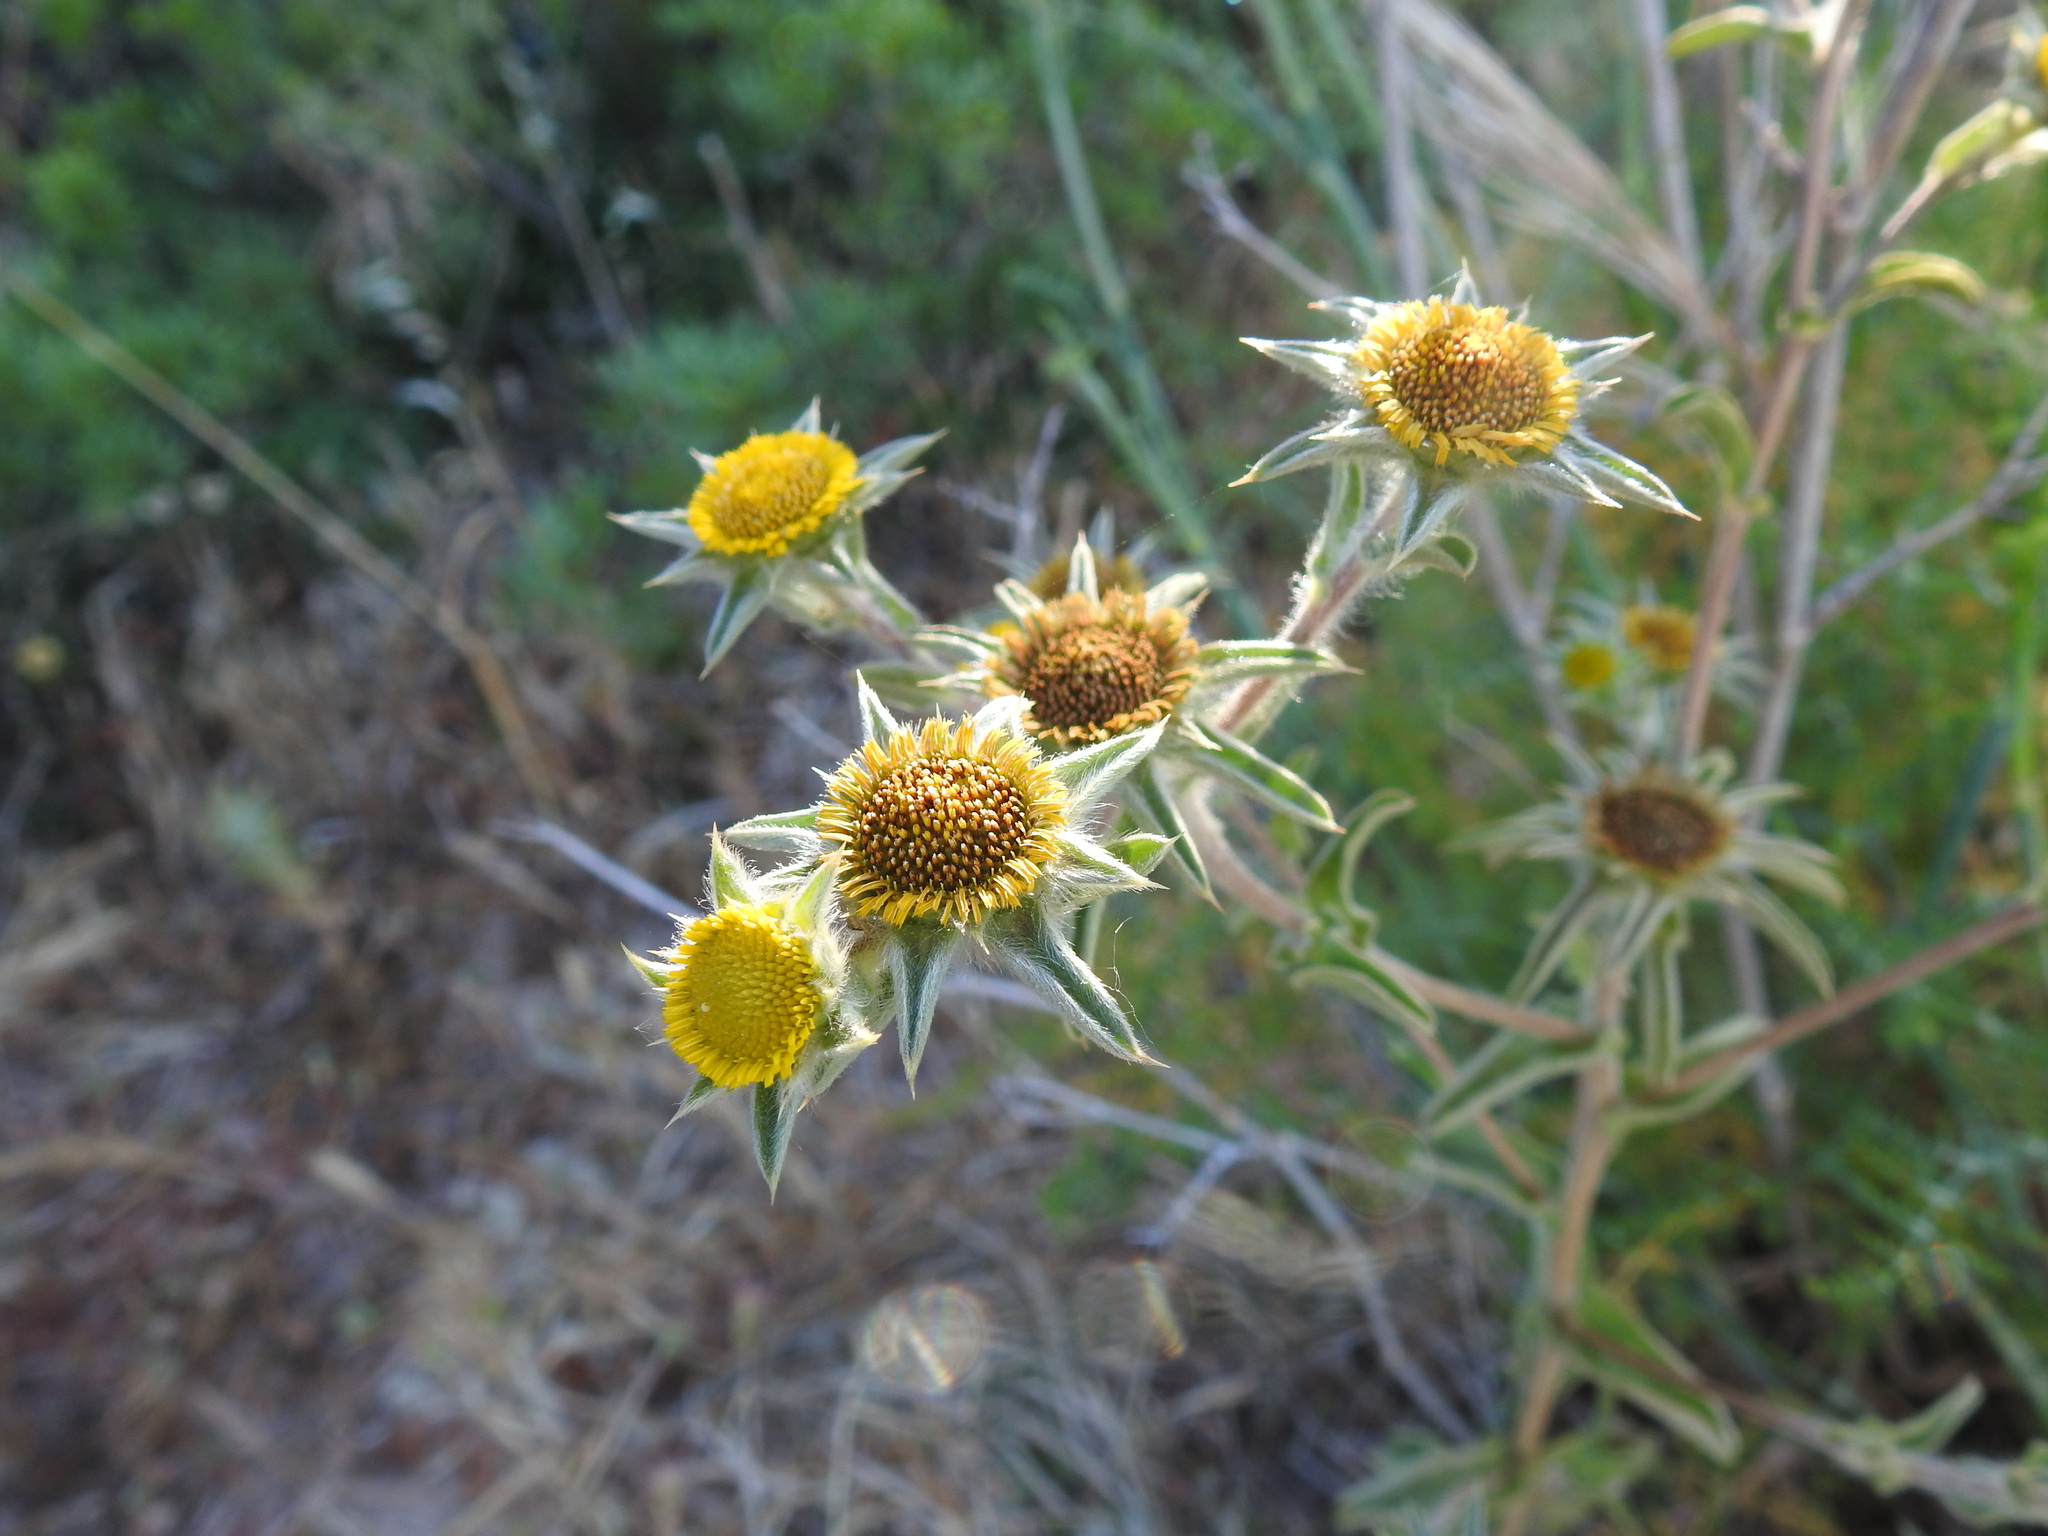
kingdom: Plantae
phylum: Tracheophyta
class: Magnoliopsida
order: Asterales
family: Asteraceae
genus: Pallenis
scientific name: Pallenis spinosa
